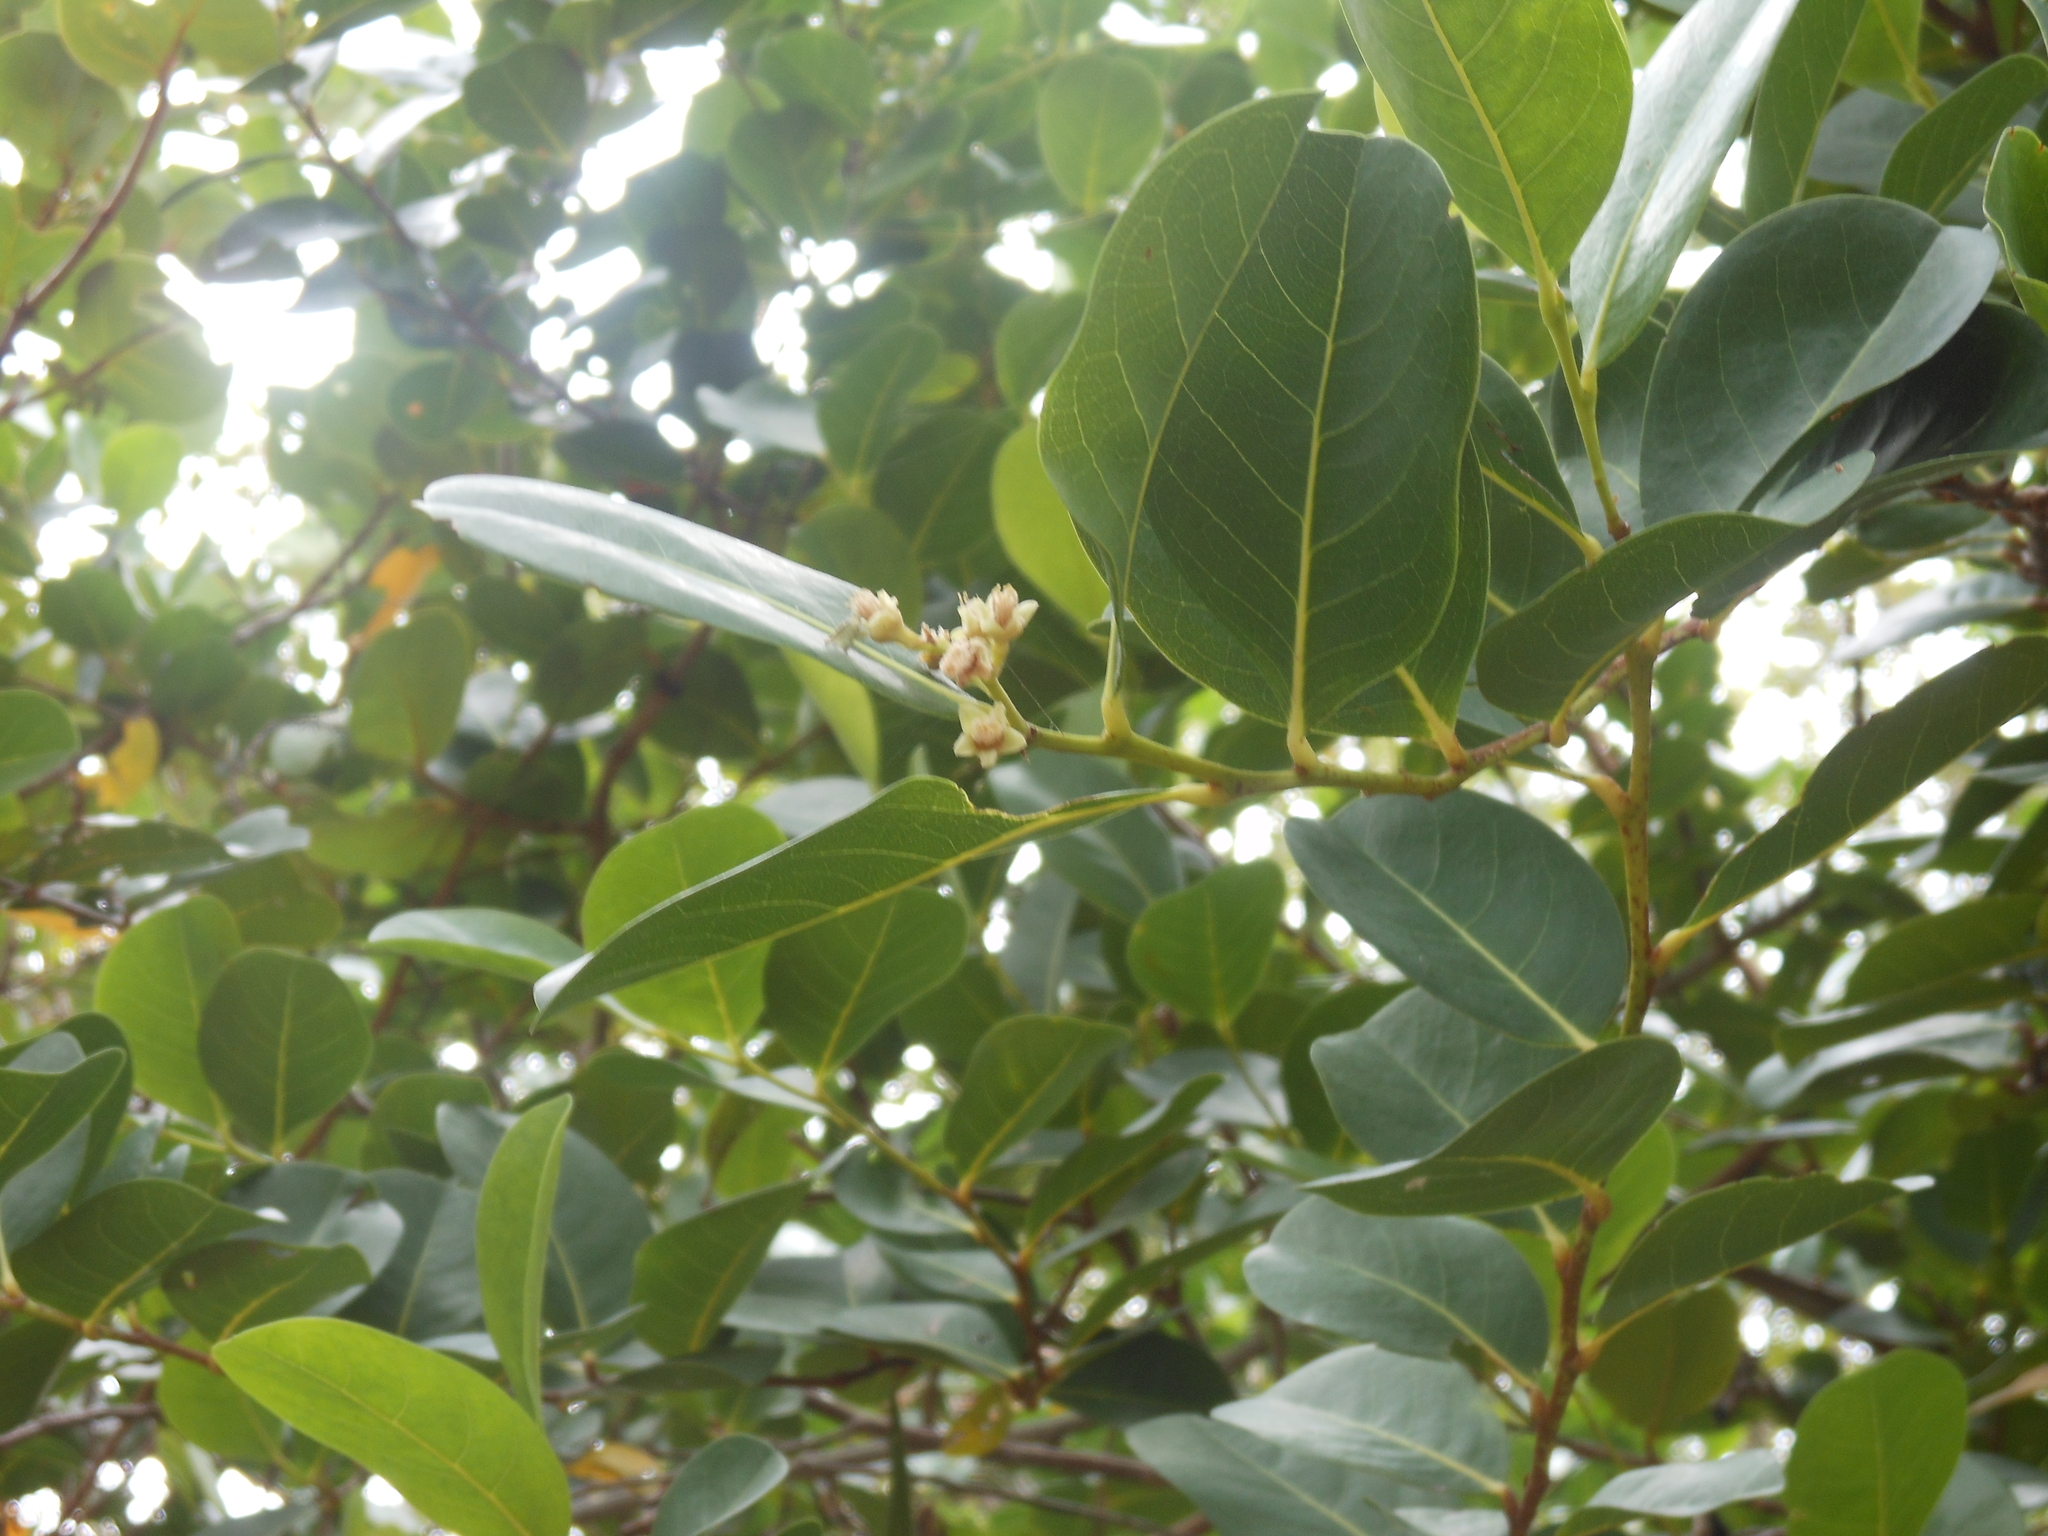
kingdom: Plantae
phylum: Tracheophyta
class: Magnoliopsida
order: Malpighiales
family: Chrysobalanaceae
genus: Chrysobalanus
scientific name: Chrysobalanus icaco
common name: Coco plum
